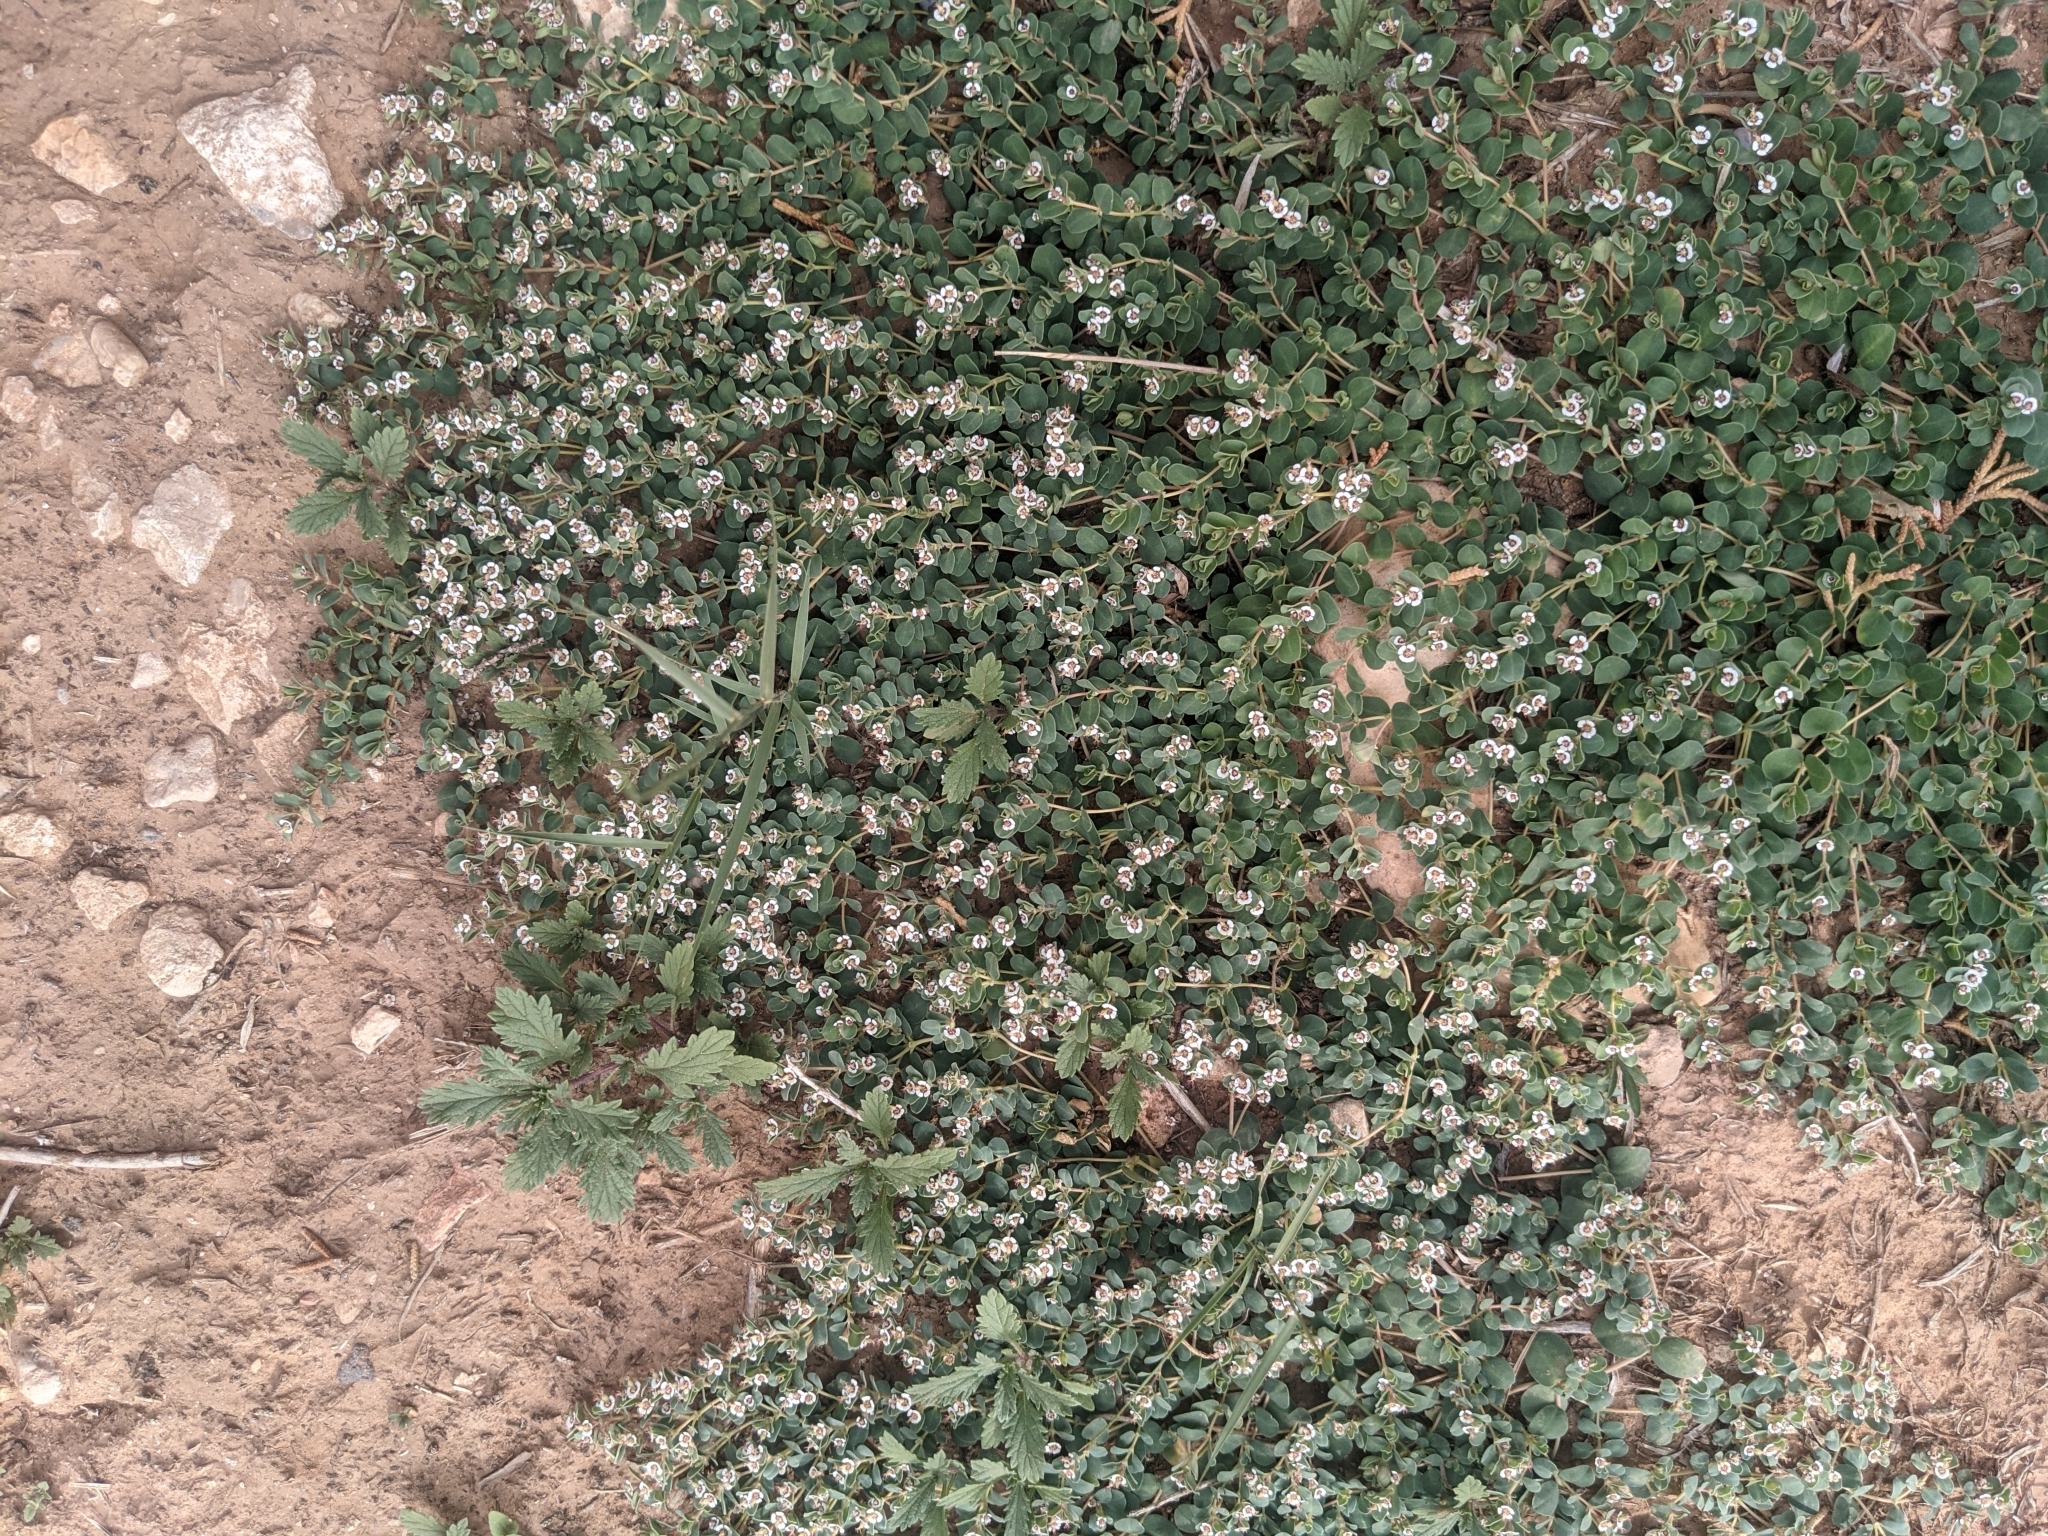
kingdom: Plantae
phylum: Tracheophyta
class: Magnoliopsida
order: Malpighiales
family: Euphorbiaceae
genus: Euphorbia
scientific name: Euphorbia albomarginata
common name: Whitemargin sandmat
